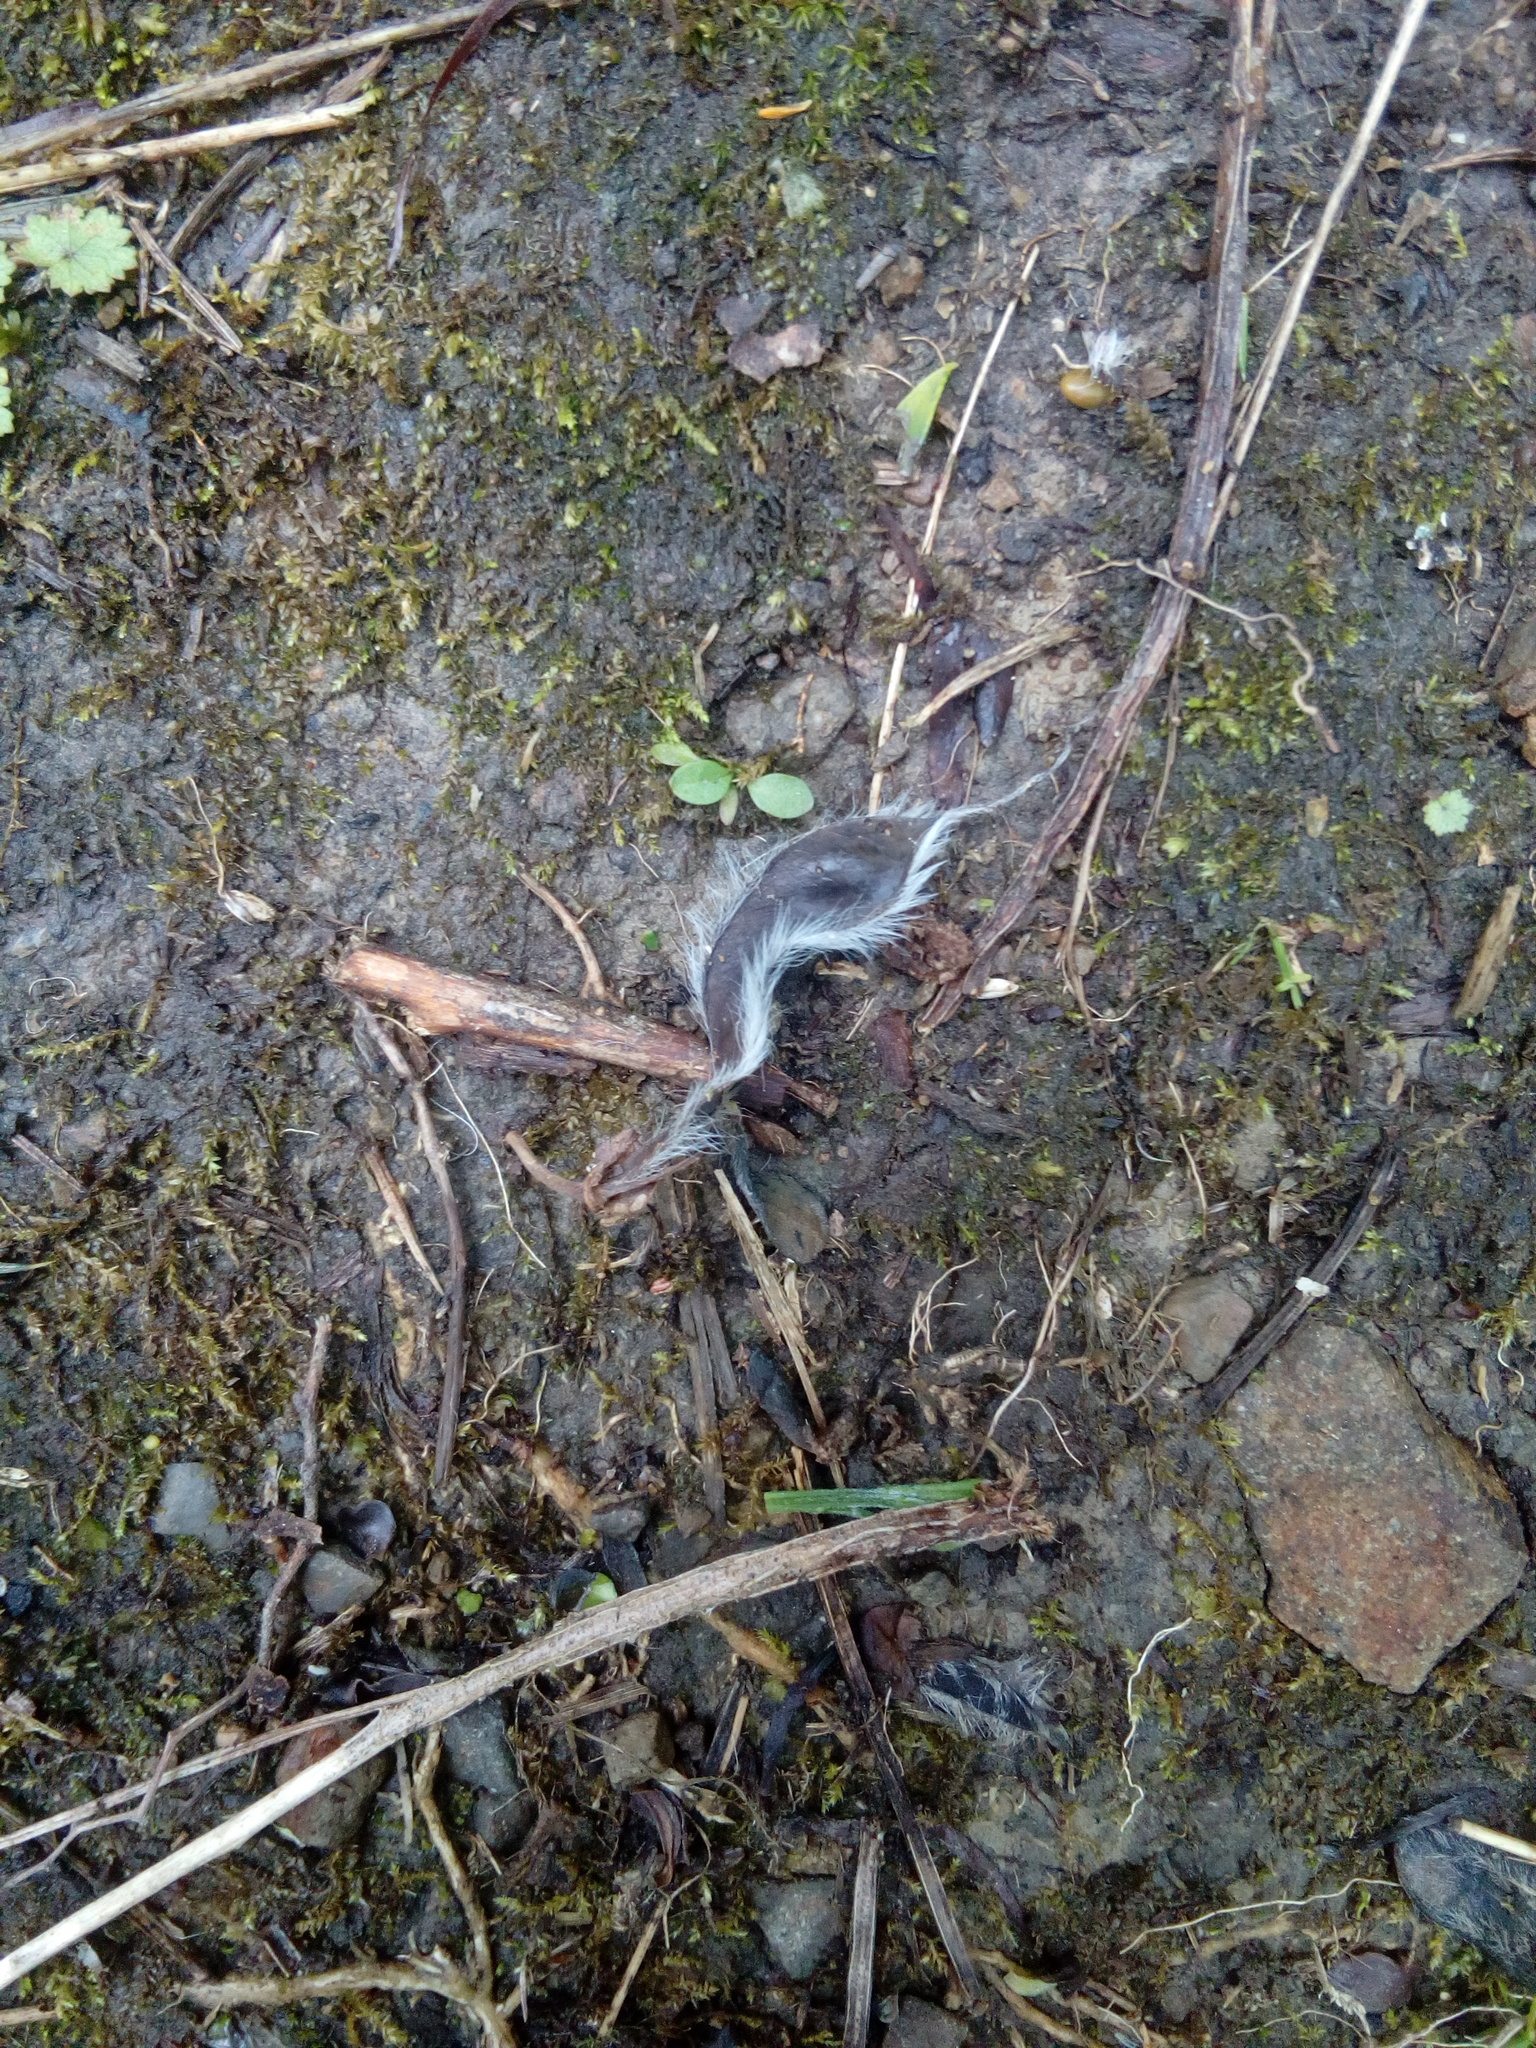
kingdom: Plantae
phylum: Tracheophyta
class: Magnoliopsida
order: Fabales
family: Fabaceae
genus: Cytisus
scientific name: Cytisus scoparius
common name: Scotch broom
